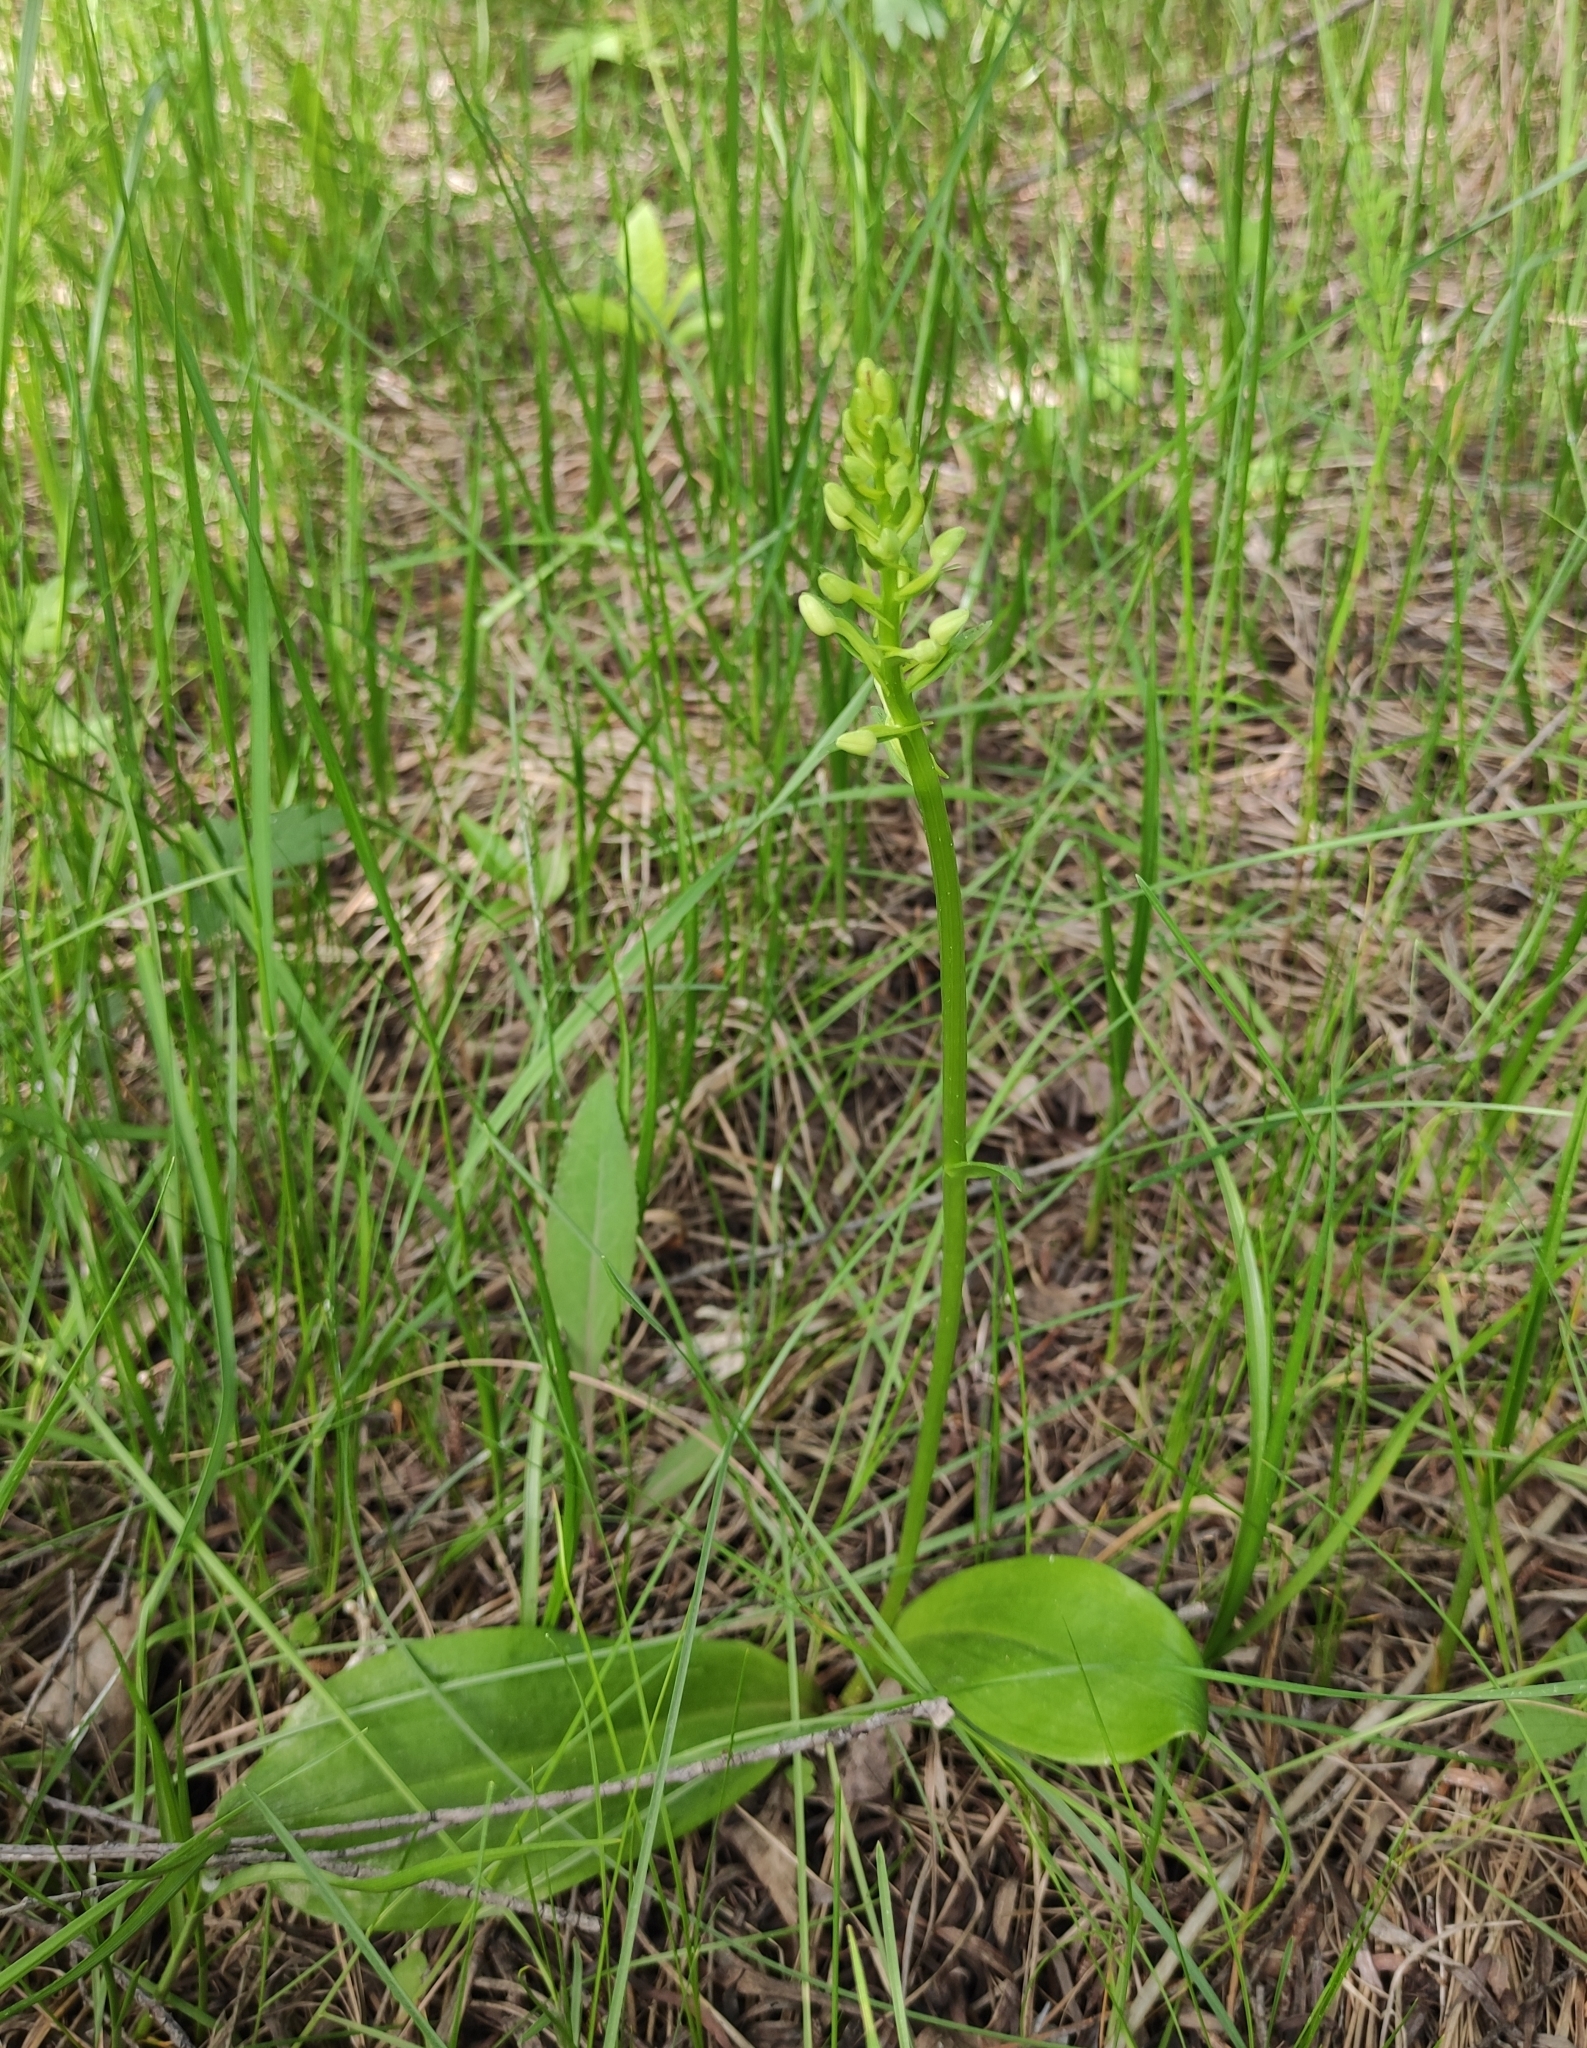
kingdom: Plantae
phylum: Tracheophyta
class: Liliopsida
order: Asparagales
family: Orchidaceae
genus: Platanthera
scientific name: Platanthera bifolia
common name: Lesser butterfly-orchid
